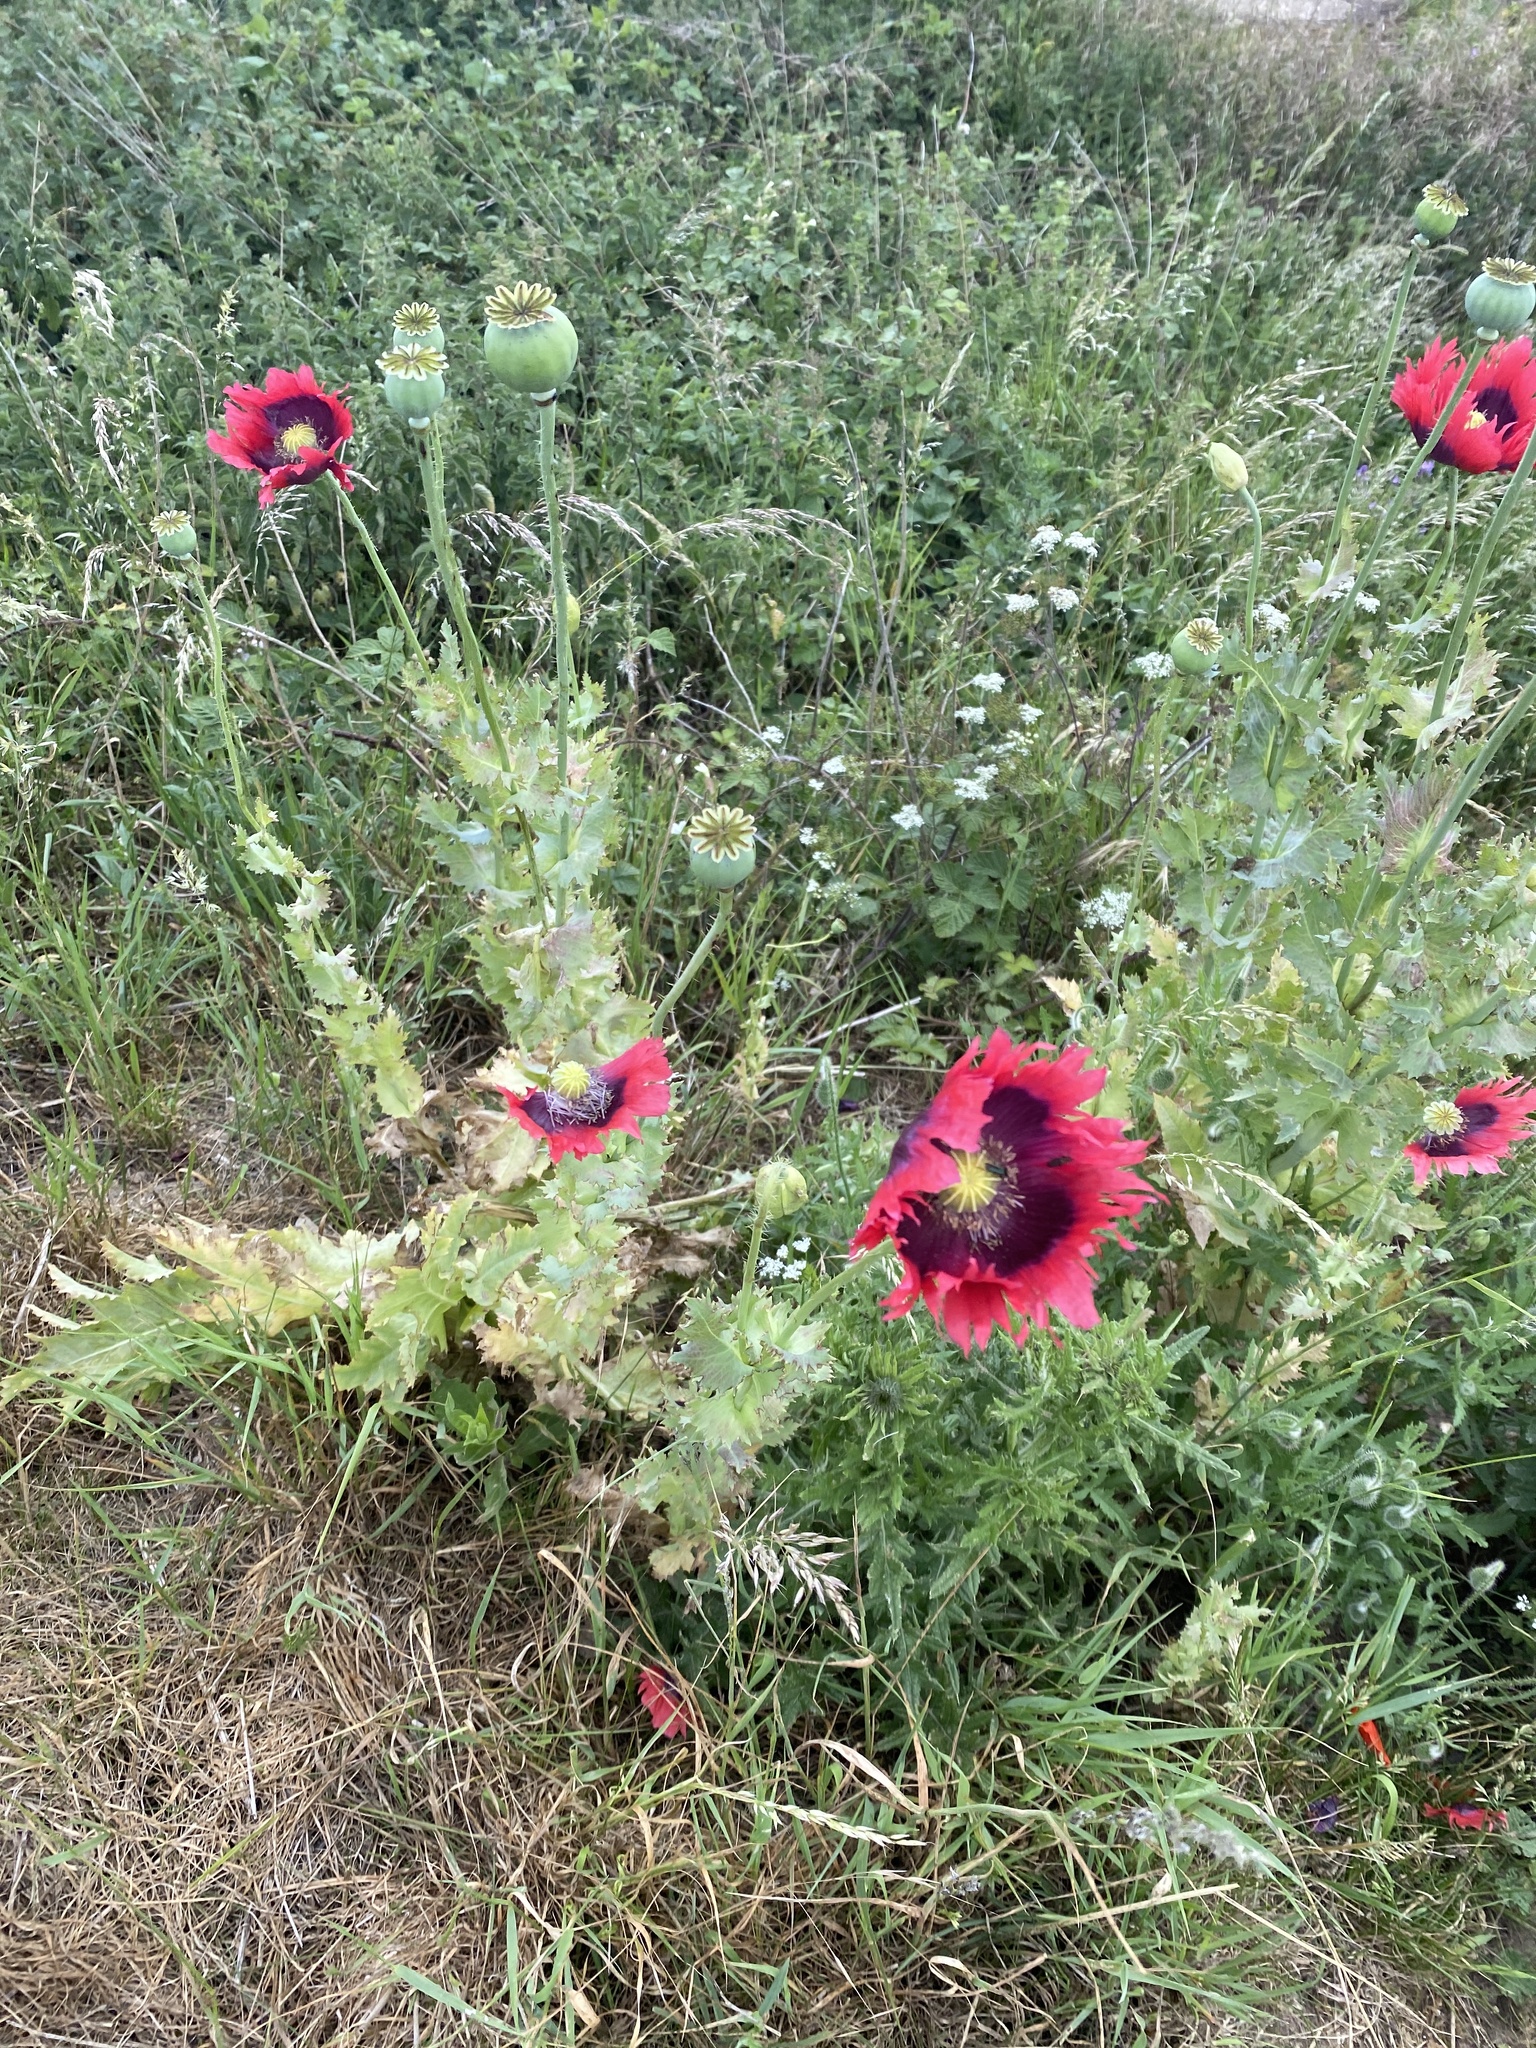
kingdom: Plantae
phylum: Tracheophyta
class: Magnoliopsida
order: Ranunculales
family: Papaveraceae
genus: Papaver
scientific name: Papaver somniferum
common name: Opium poppy
